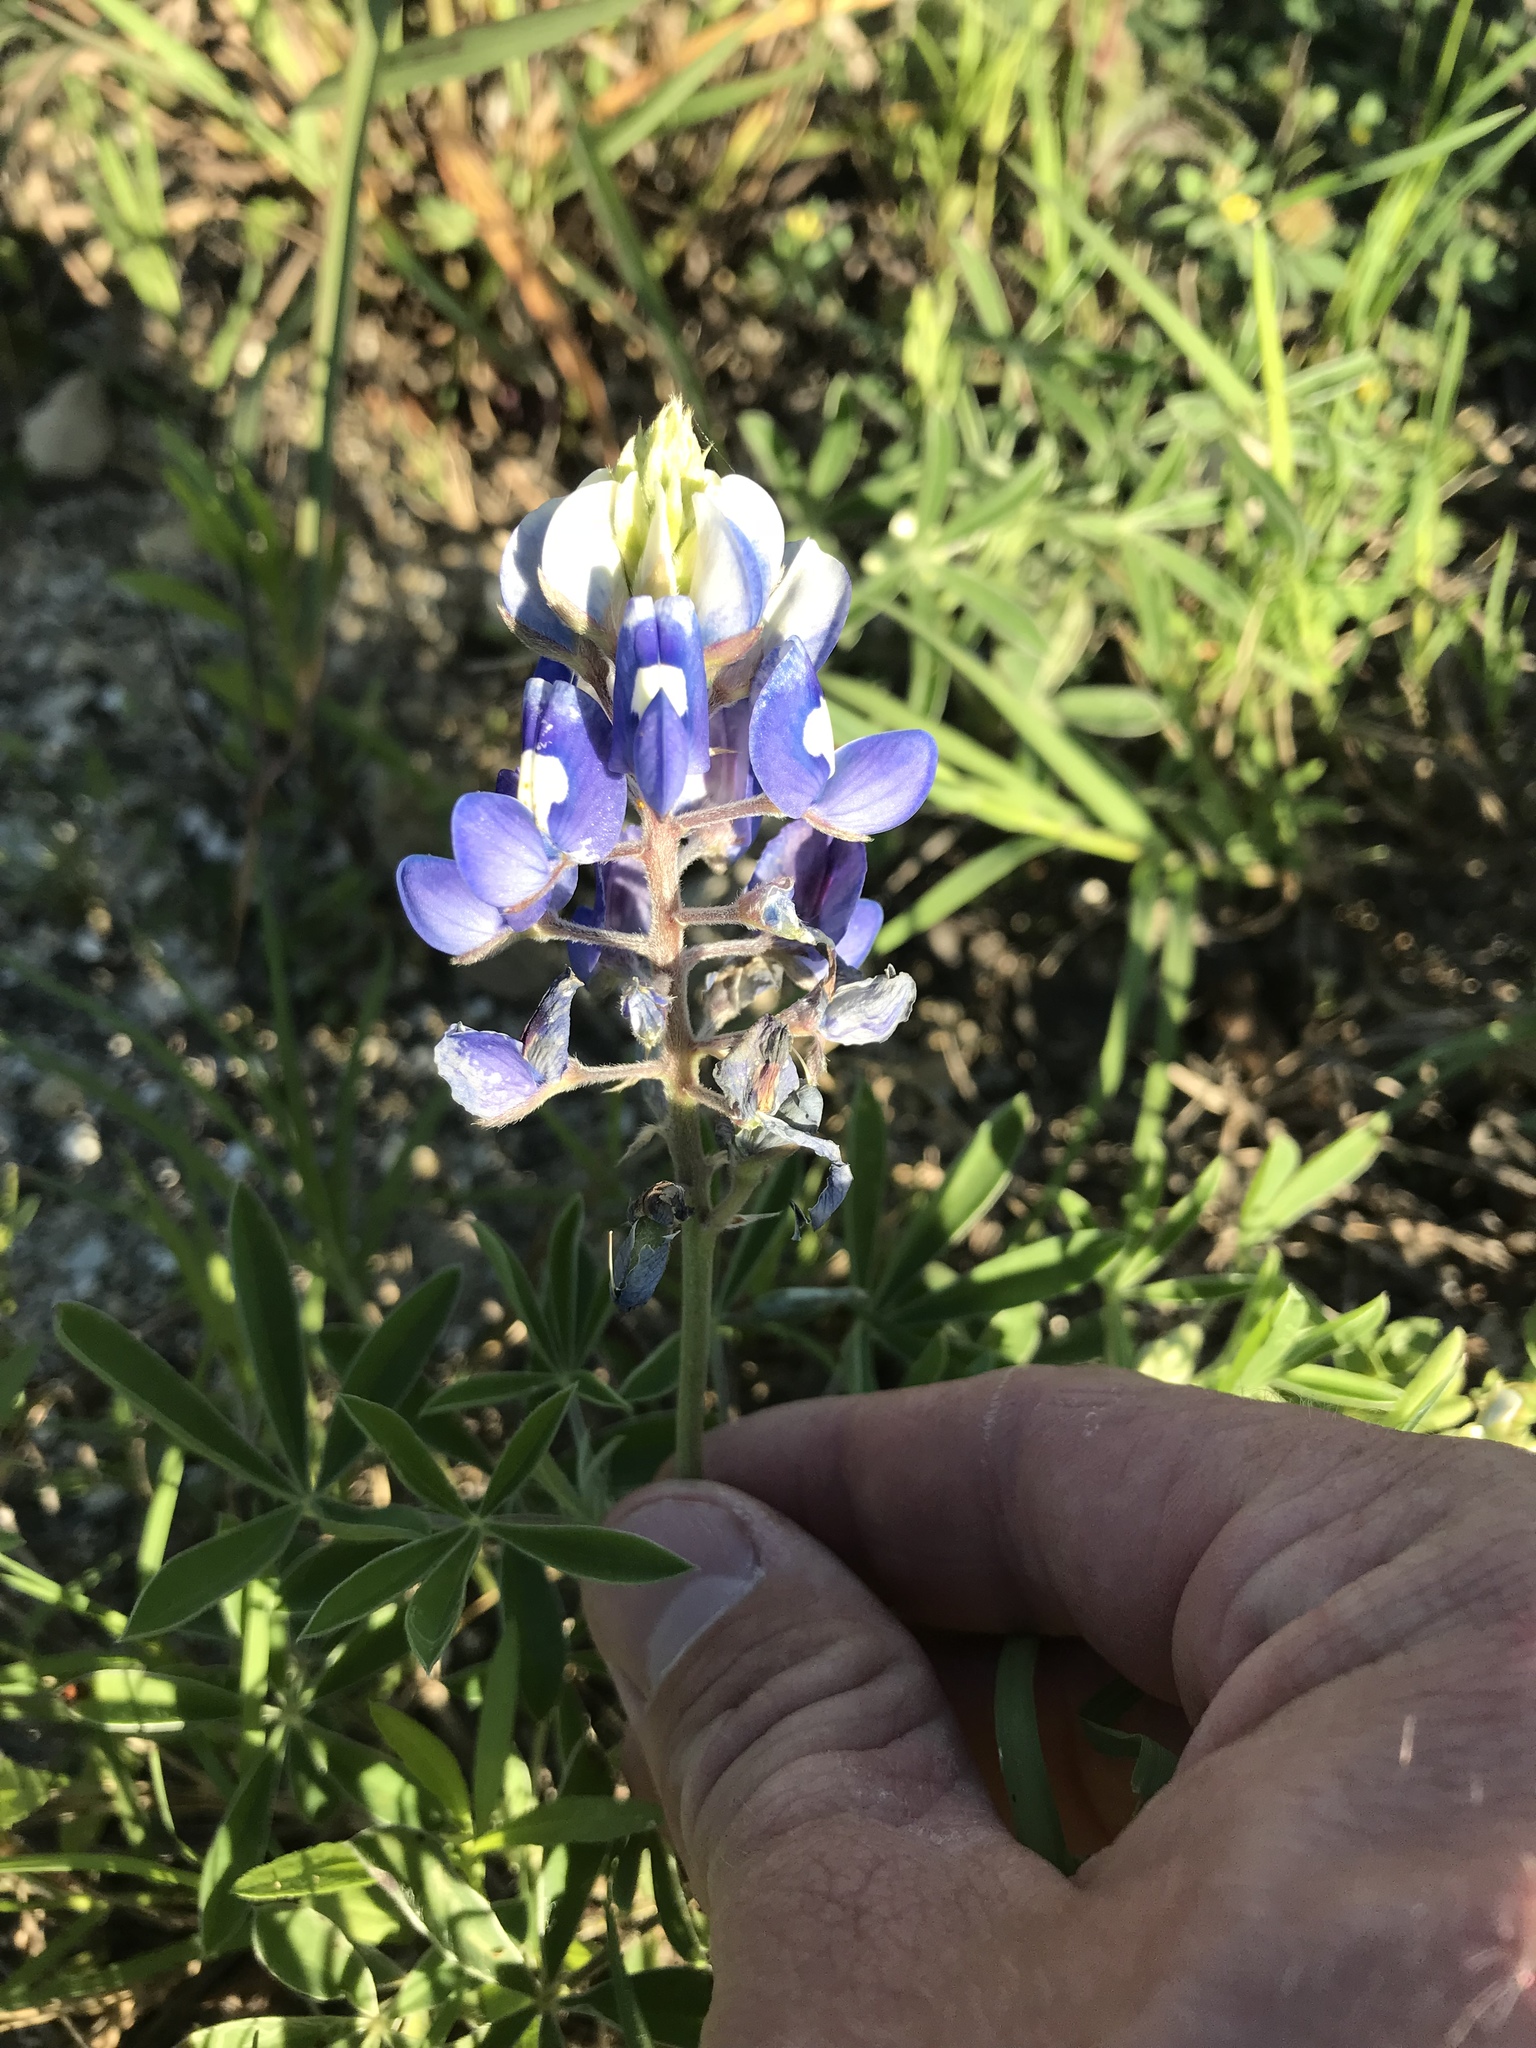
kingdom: Plantae
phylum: Tracheophyta
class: Magnoliopsida
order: Fabales
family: Fabaceae
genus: Lupinus
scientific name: Lupinus texensis
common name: Texas bluebonnet
